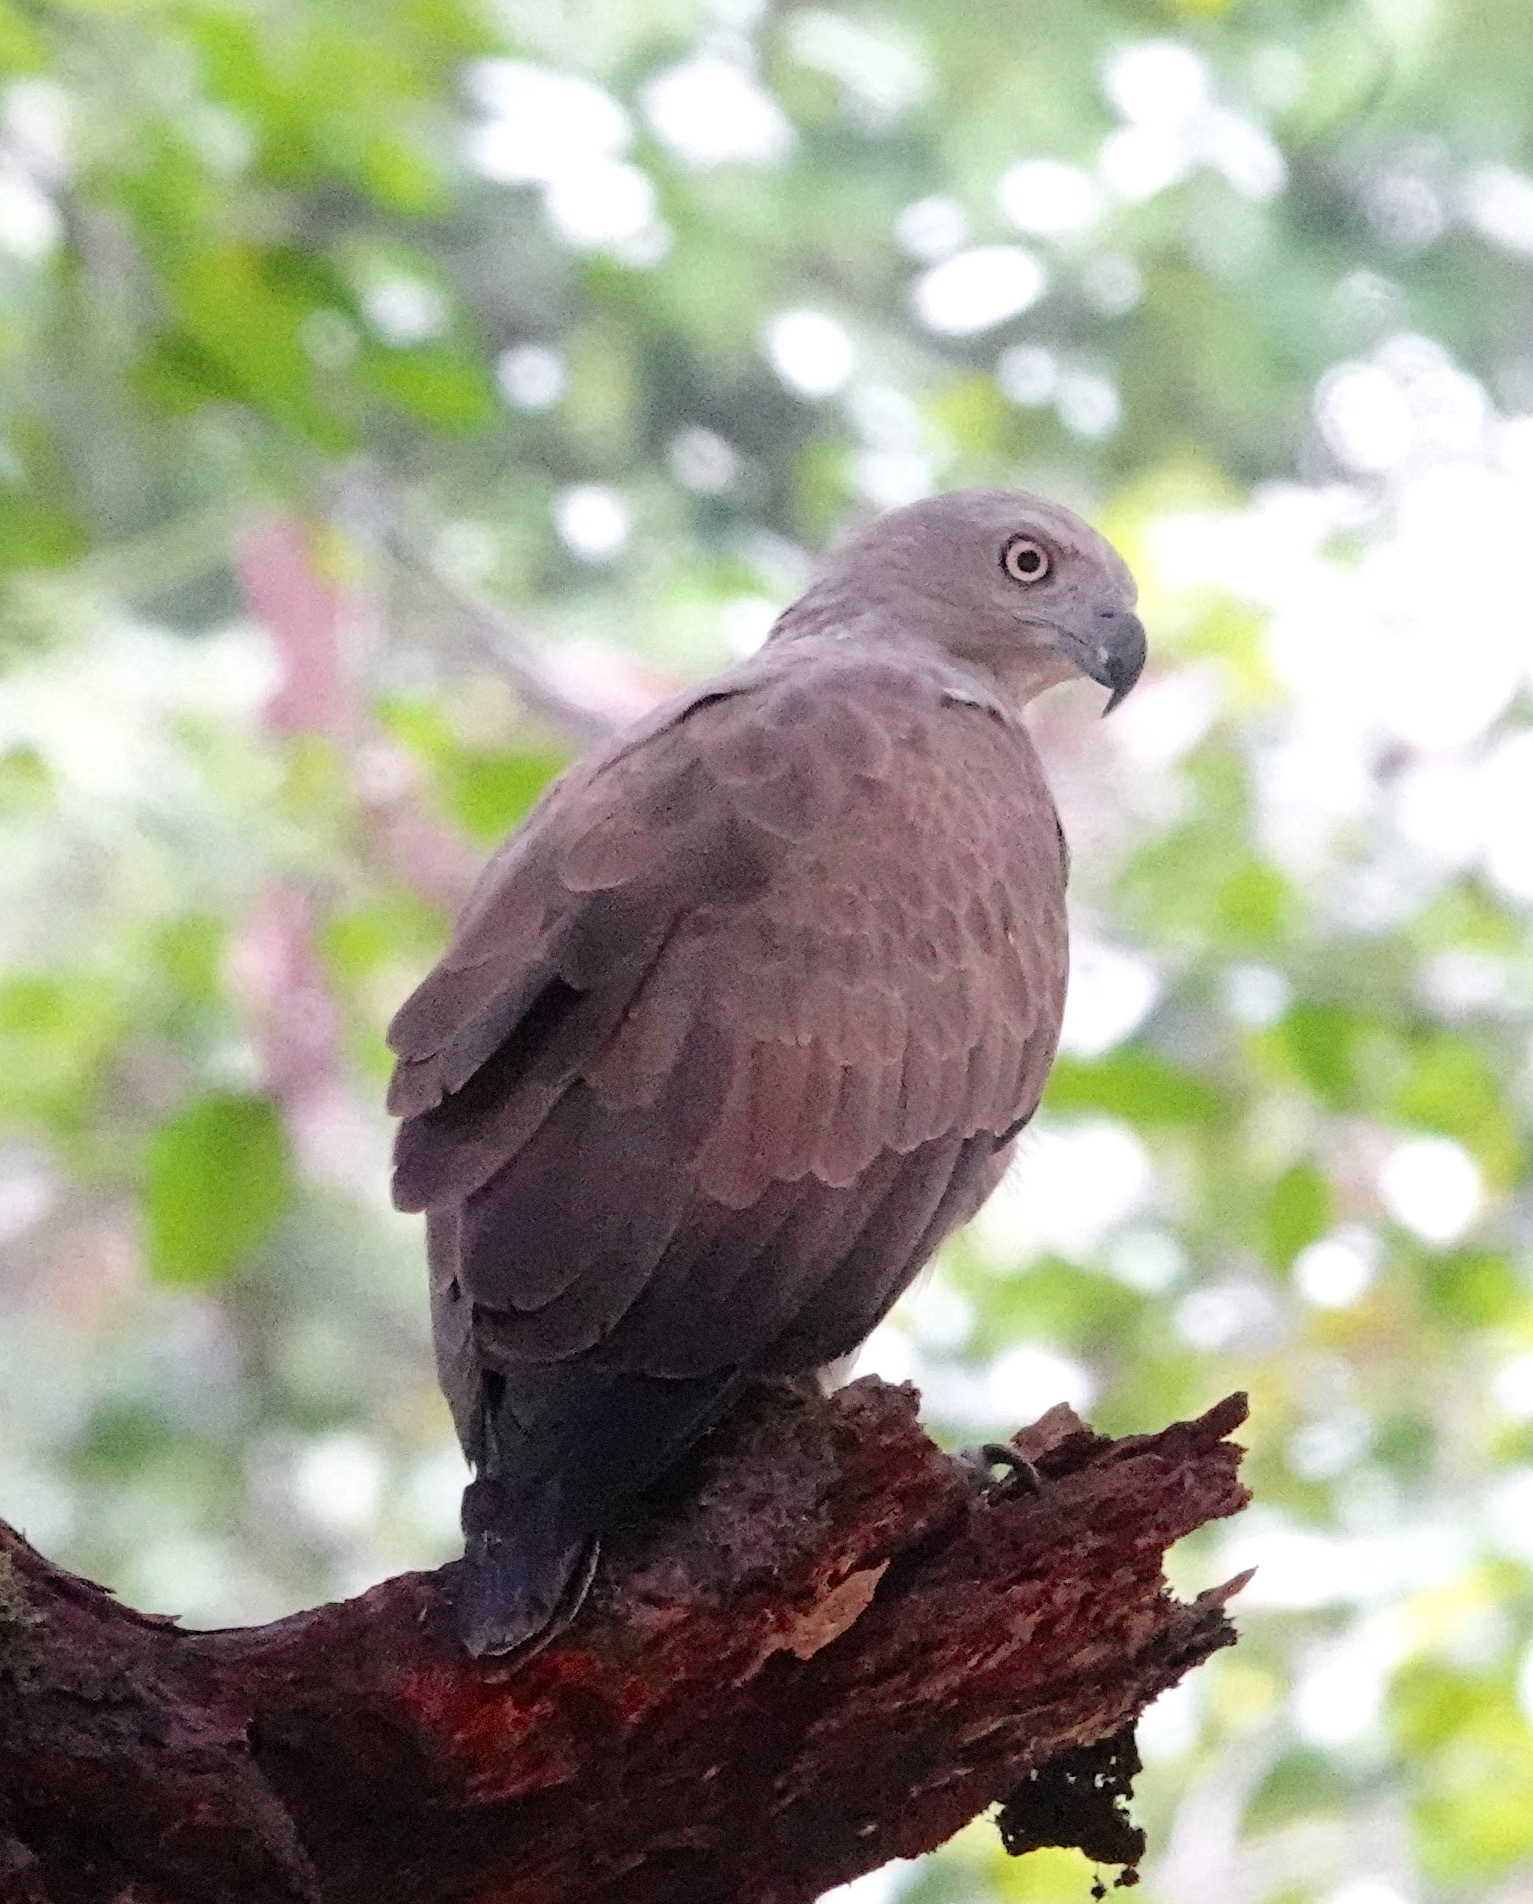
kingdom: Animalia
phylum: Chordata
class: Aves
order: Accipitriformes
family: Accipitridae
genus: Icthyophaga
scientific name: Icthyophaga humilis
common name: Lesser fish-eagle
